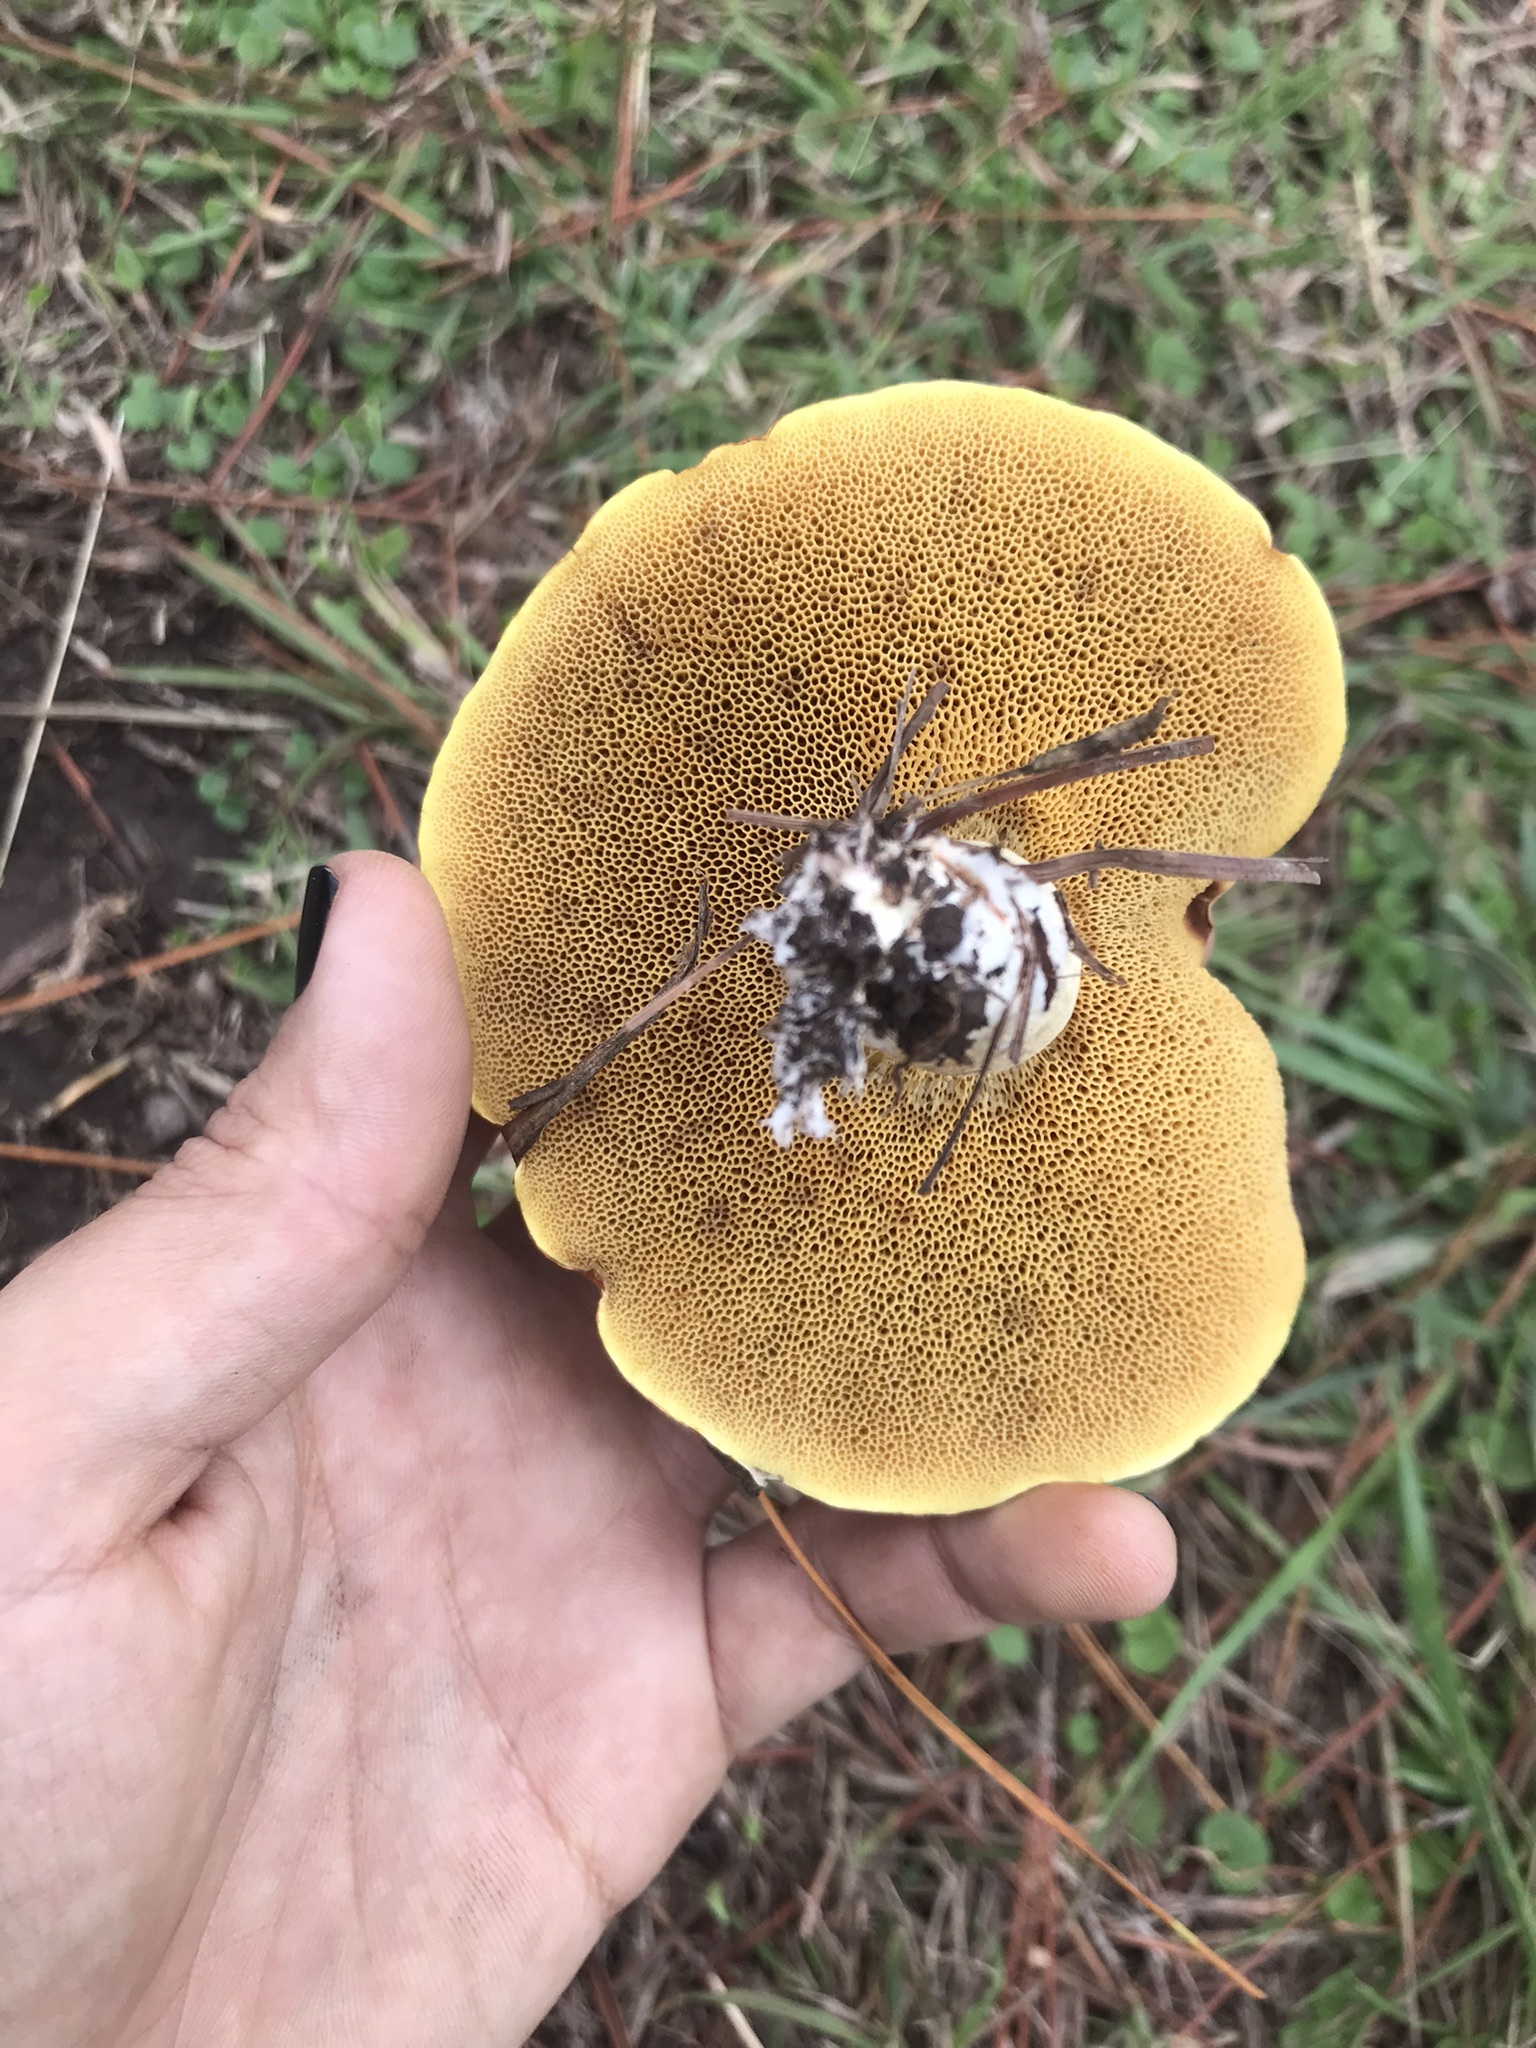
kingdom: Fungi
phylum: Basidiomycota
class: Agaricomycetes
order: Boletales
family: Suillaceae
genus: Suillus
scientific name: Suillus granulatus
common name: Weeping bolete
